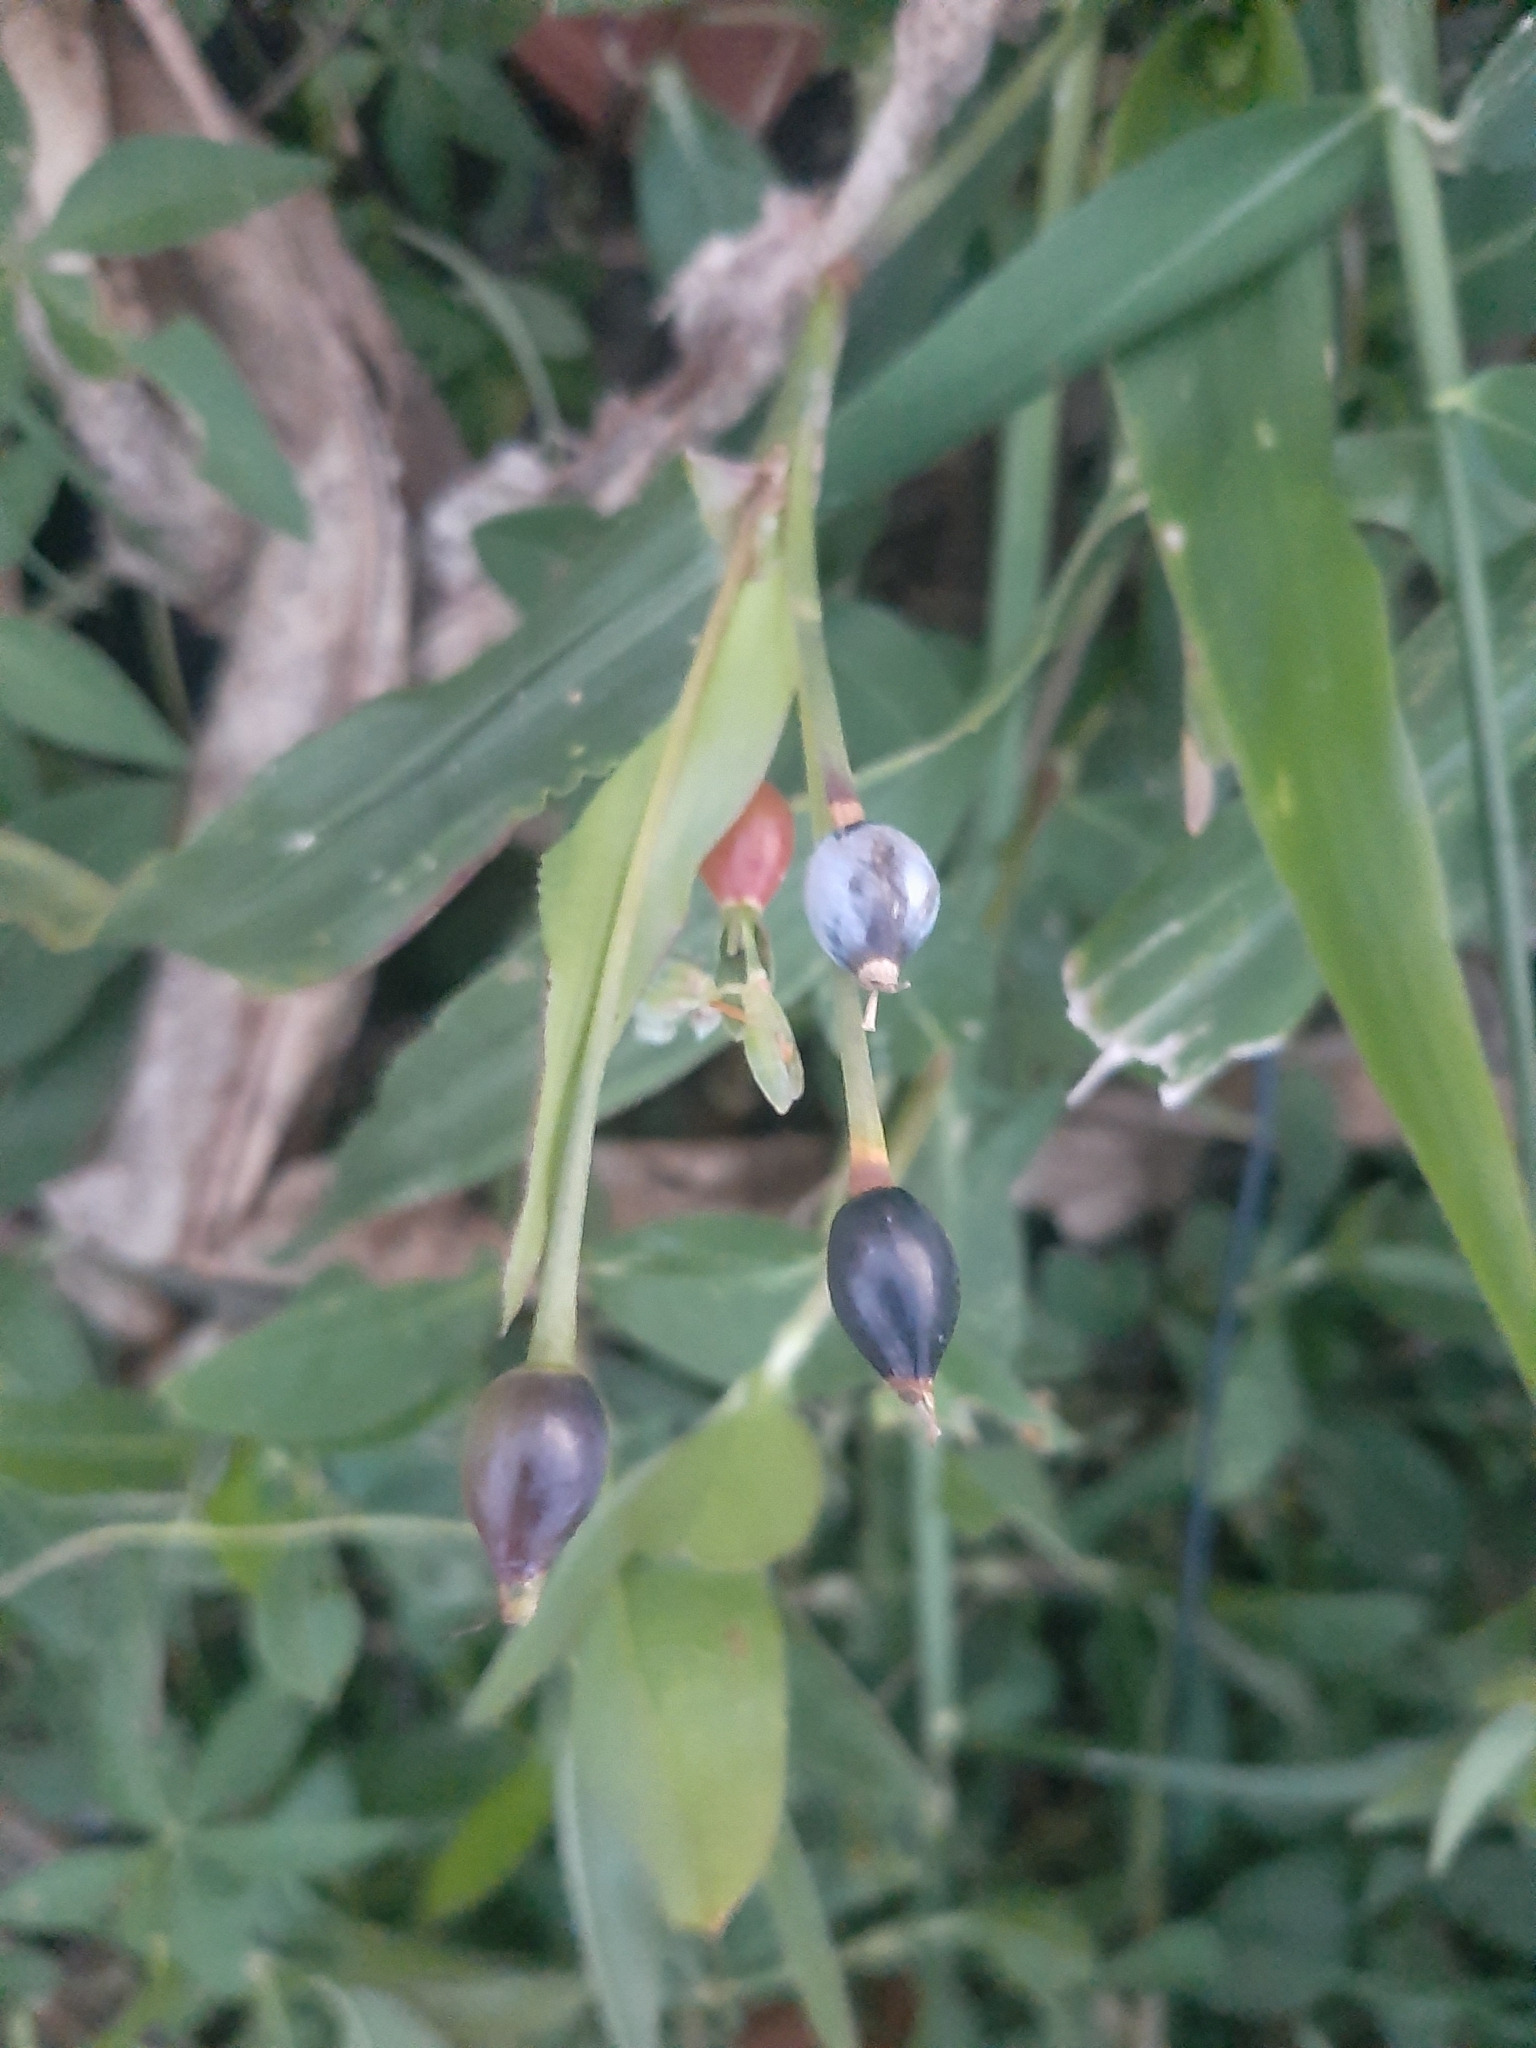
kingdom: Plantae
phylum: Tracheophyta
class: Liliopsida
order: Poales
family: Poaceae
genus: Coix
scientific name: Coix lacryma-jobi
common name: Job's tears
